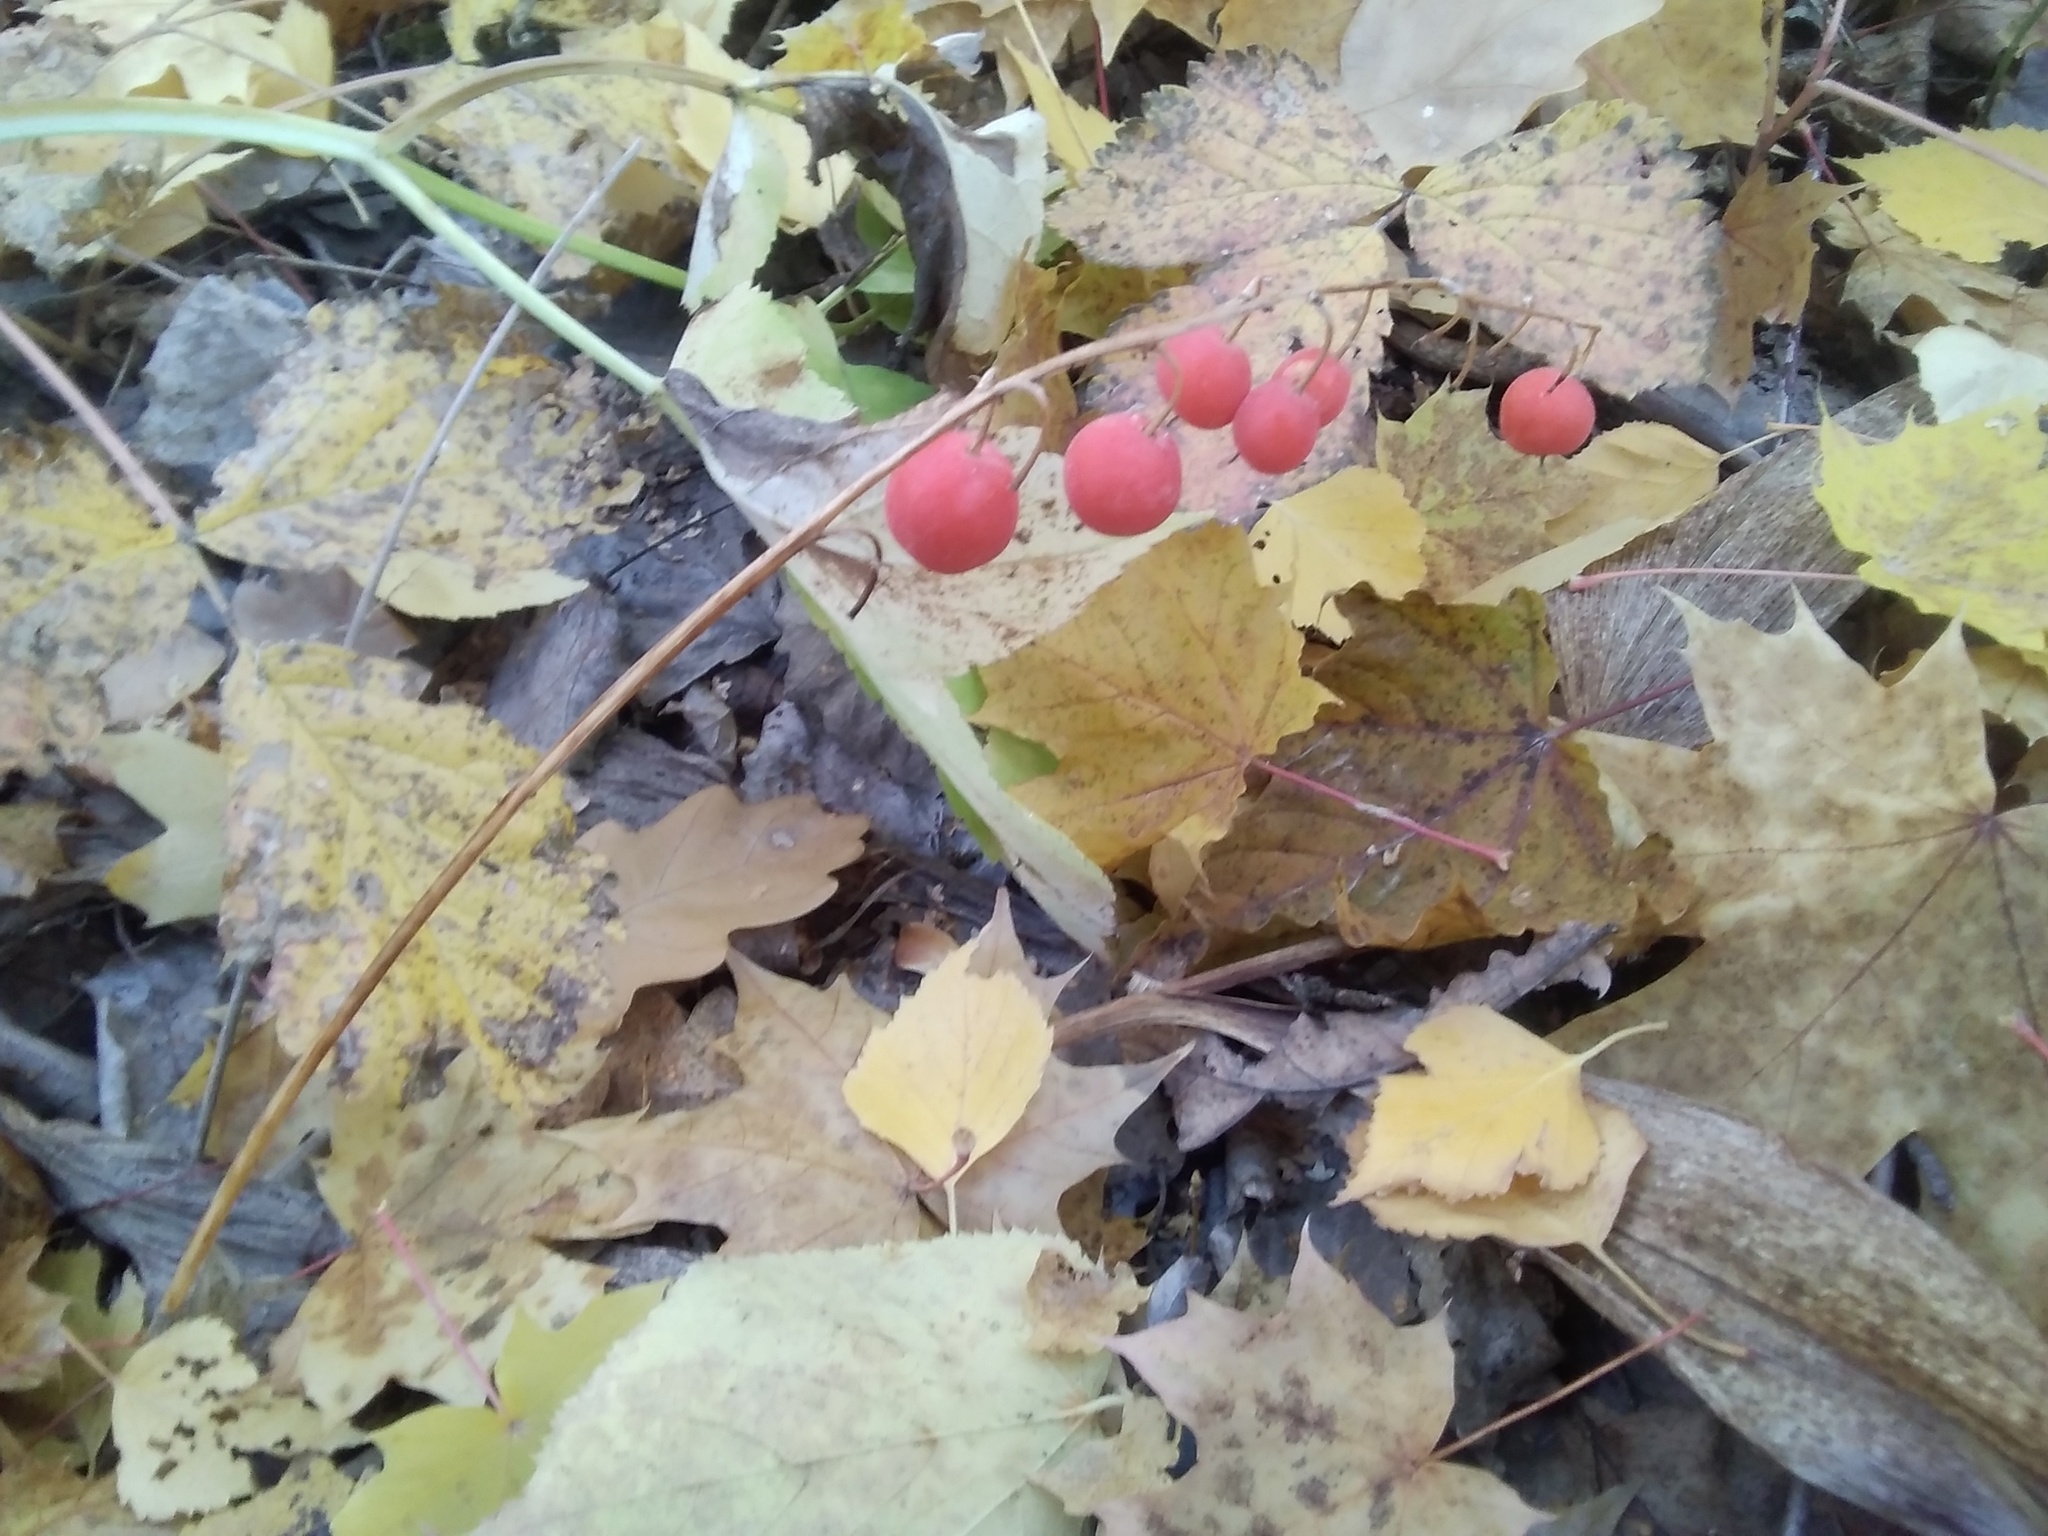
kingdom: Plantae
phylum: Tracheophyta
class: Liliopsida
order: Asparagales
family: Asparagaceae
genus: Convallaria
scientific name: Convallaria majalis
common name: Lily-of-the-valley
